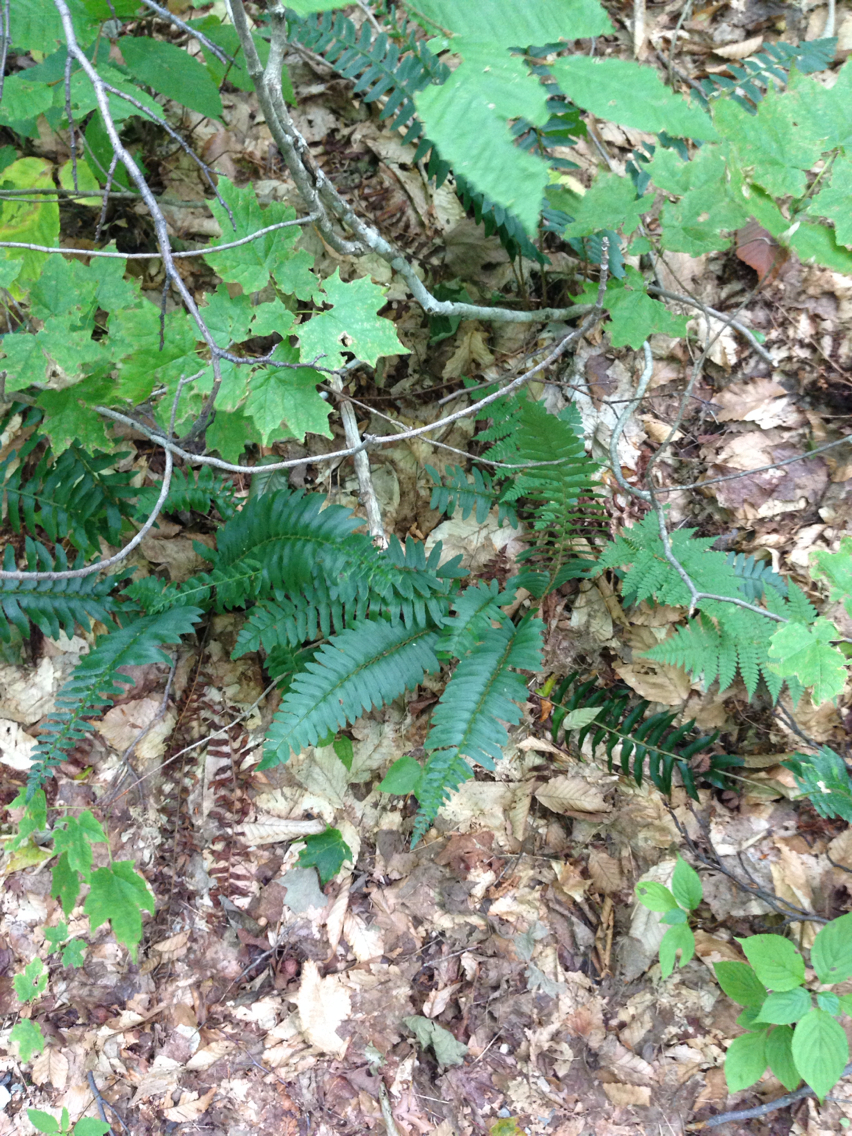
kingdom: Plantae
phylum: Tracheophyta
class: Polypodiopsida
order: Polypodiales
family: Dryopteridaceae
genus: Polystichum
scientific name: Polystichum acrostichoides
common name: Christmas fern
